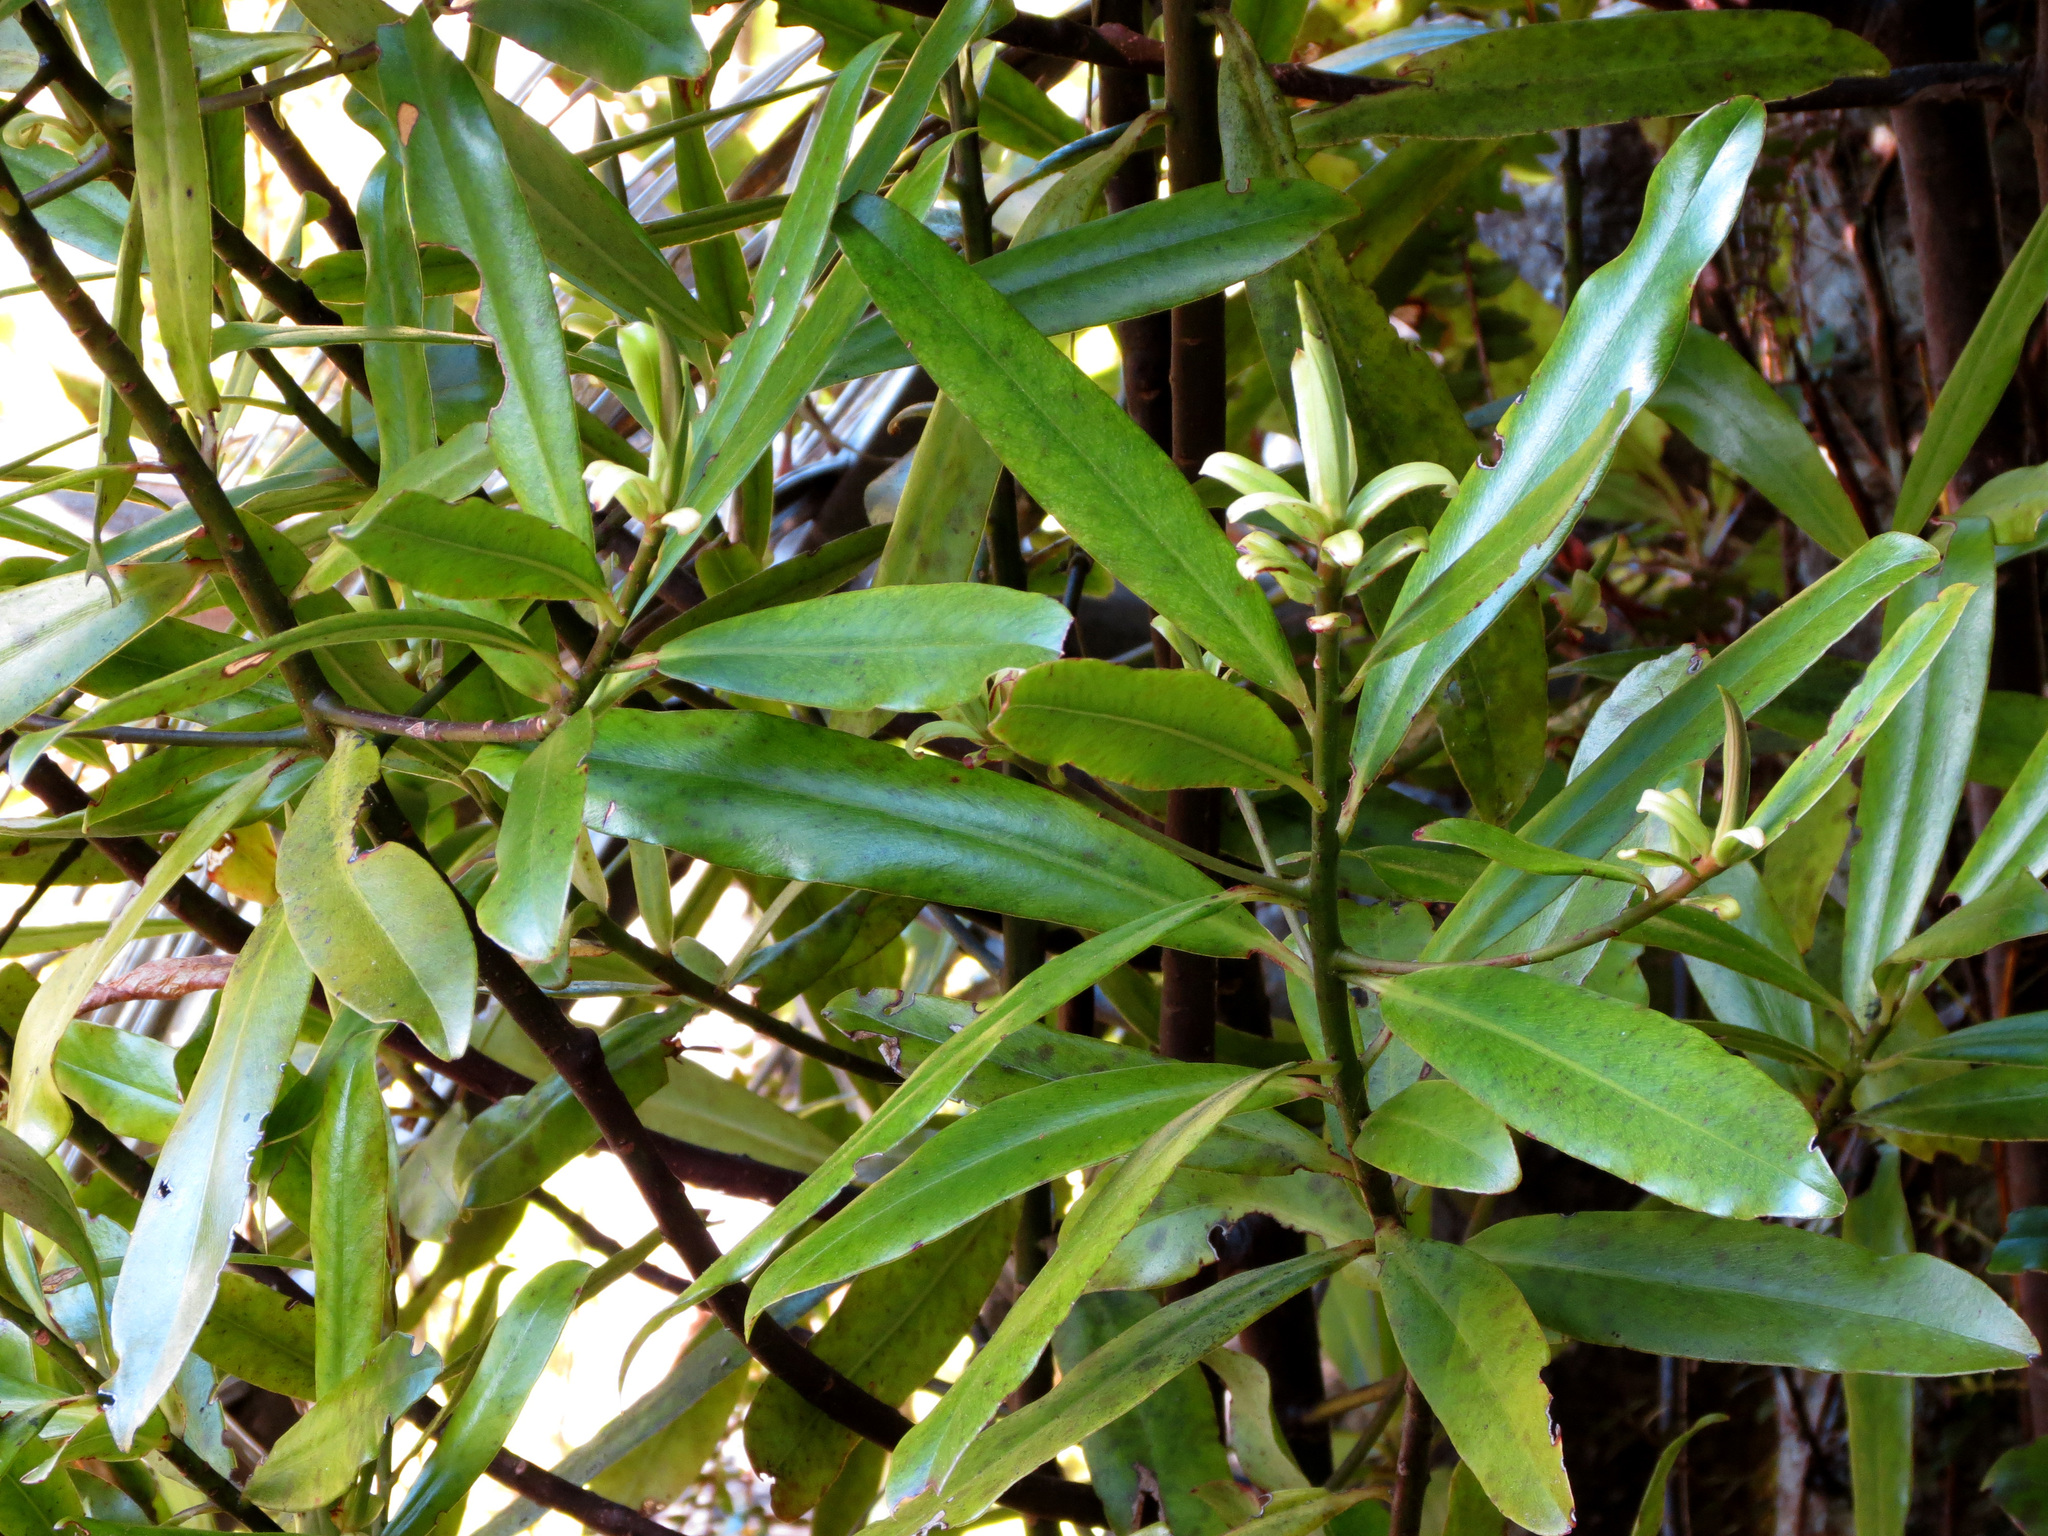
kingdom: Plantae
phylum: Tracheophyta
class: Magnoliopsida
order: Ericales
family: Primulaceae
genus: Myrsine
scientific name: Myrsine salicina
